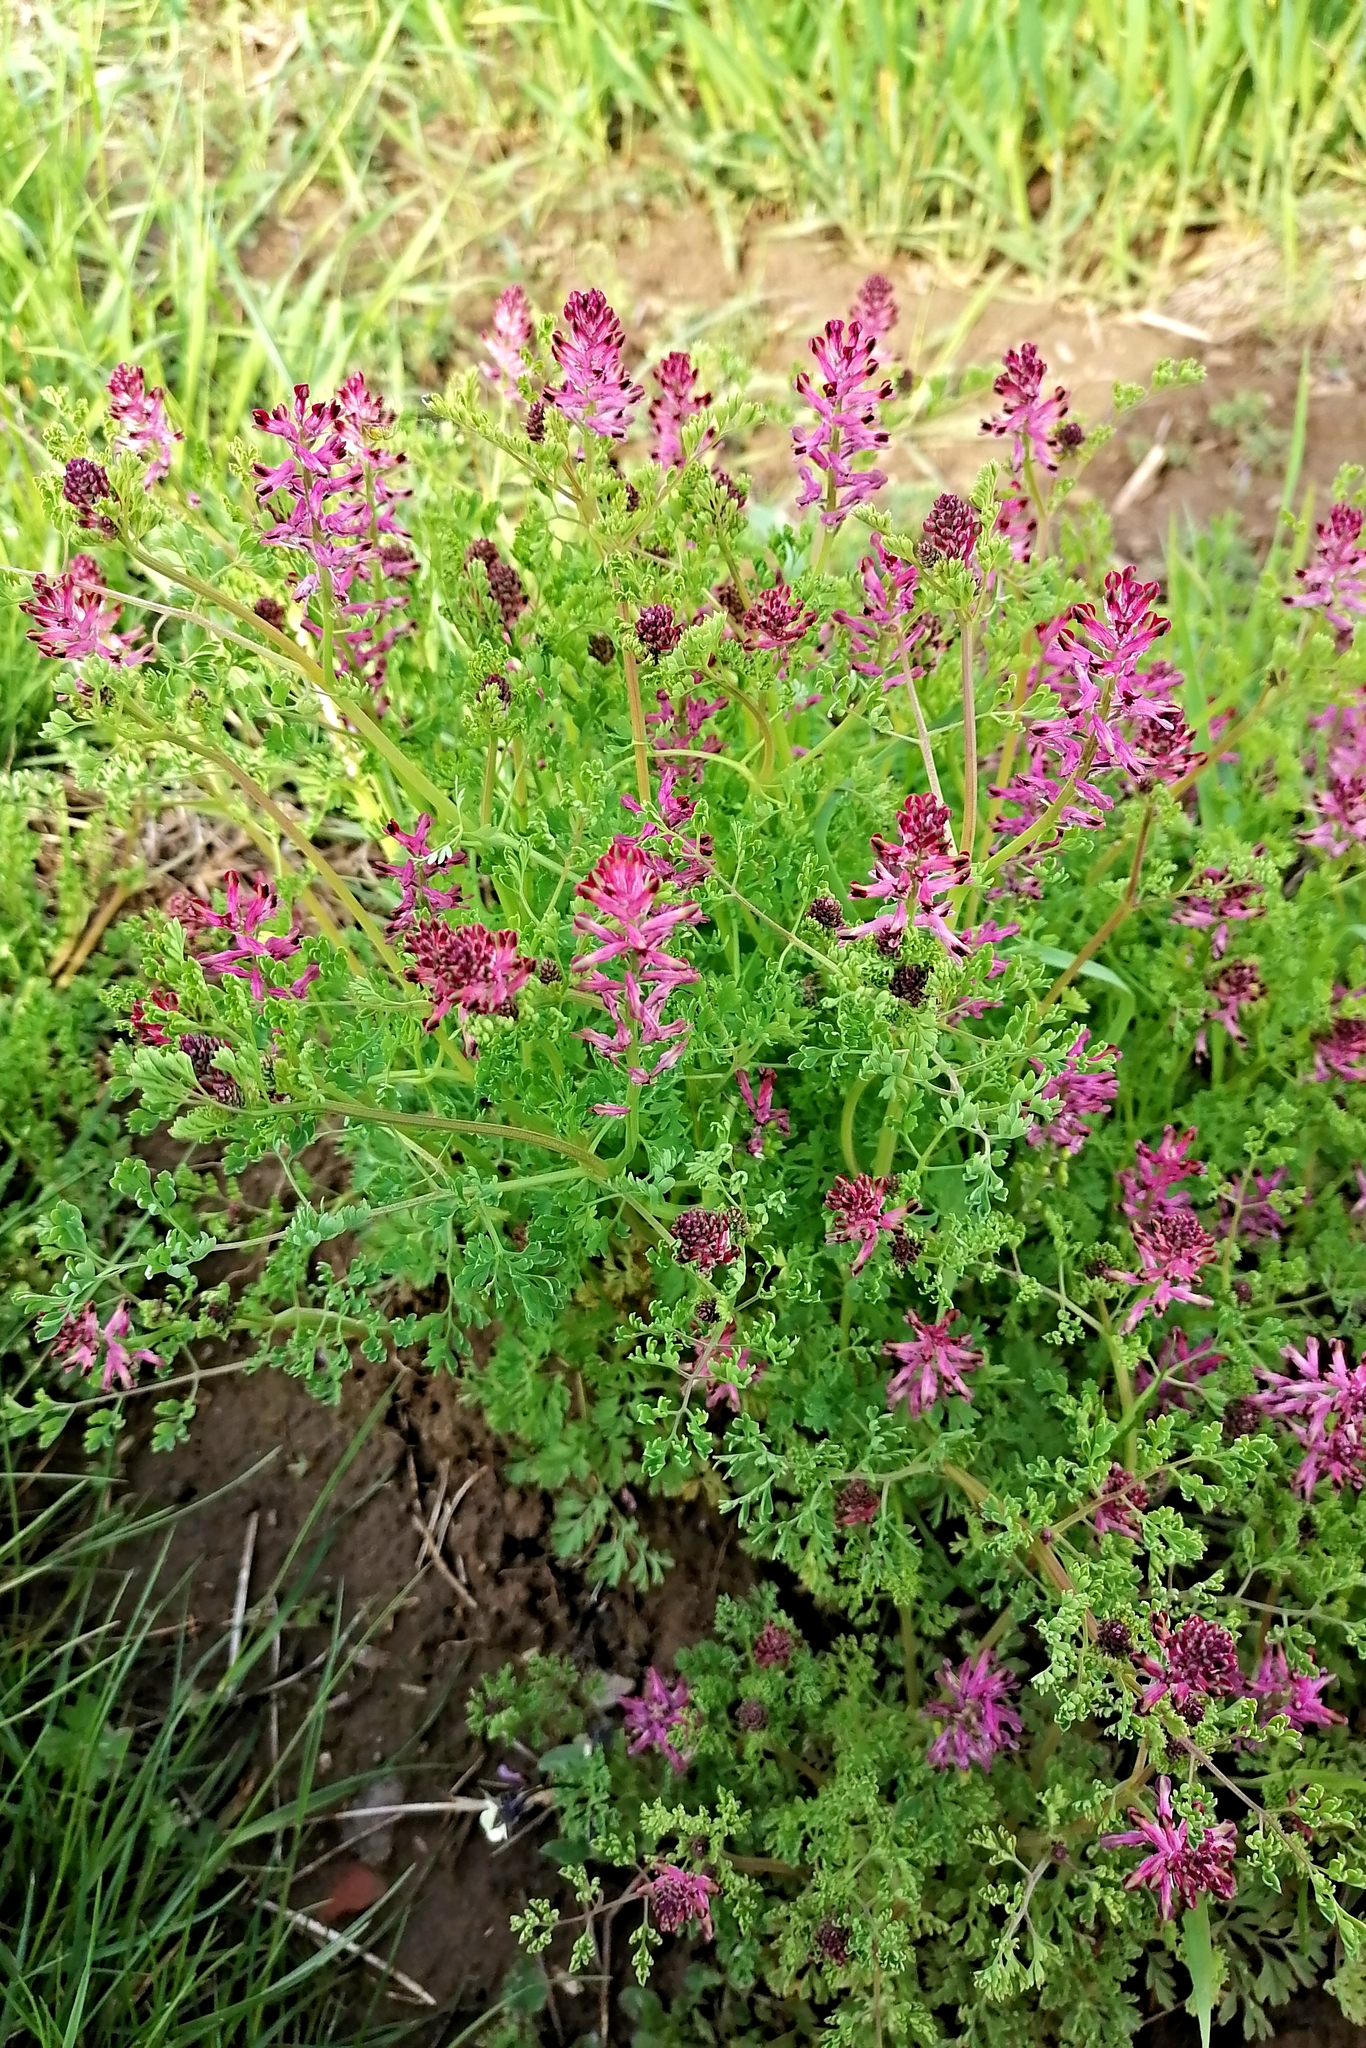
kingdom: Plantae
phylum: Tracheophyta
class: Magnoliopsida
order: Ranunculales
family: Papaveraceae
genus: Fumaria
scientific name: Fumaria officinalis
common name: Common fumitory
